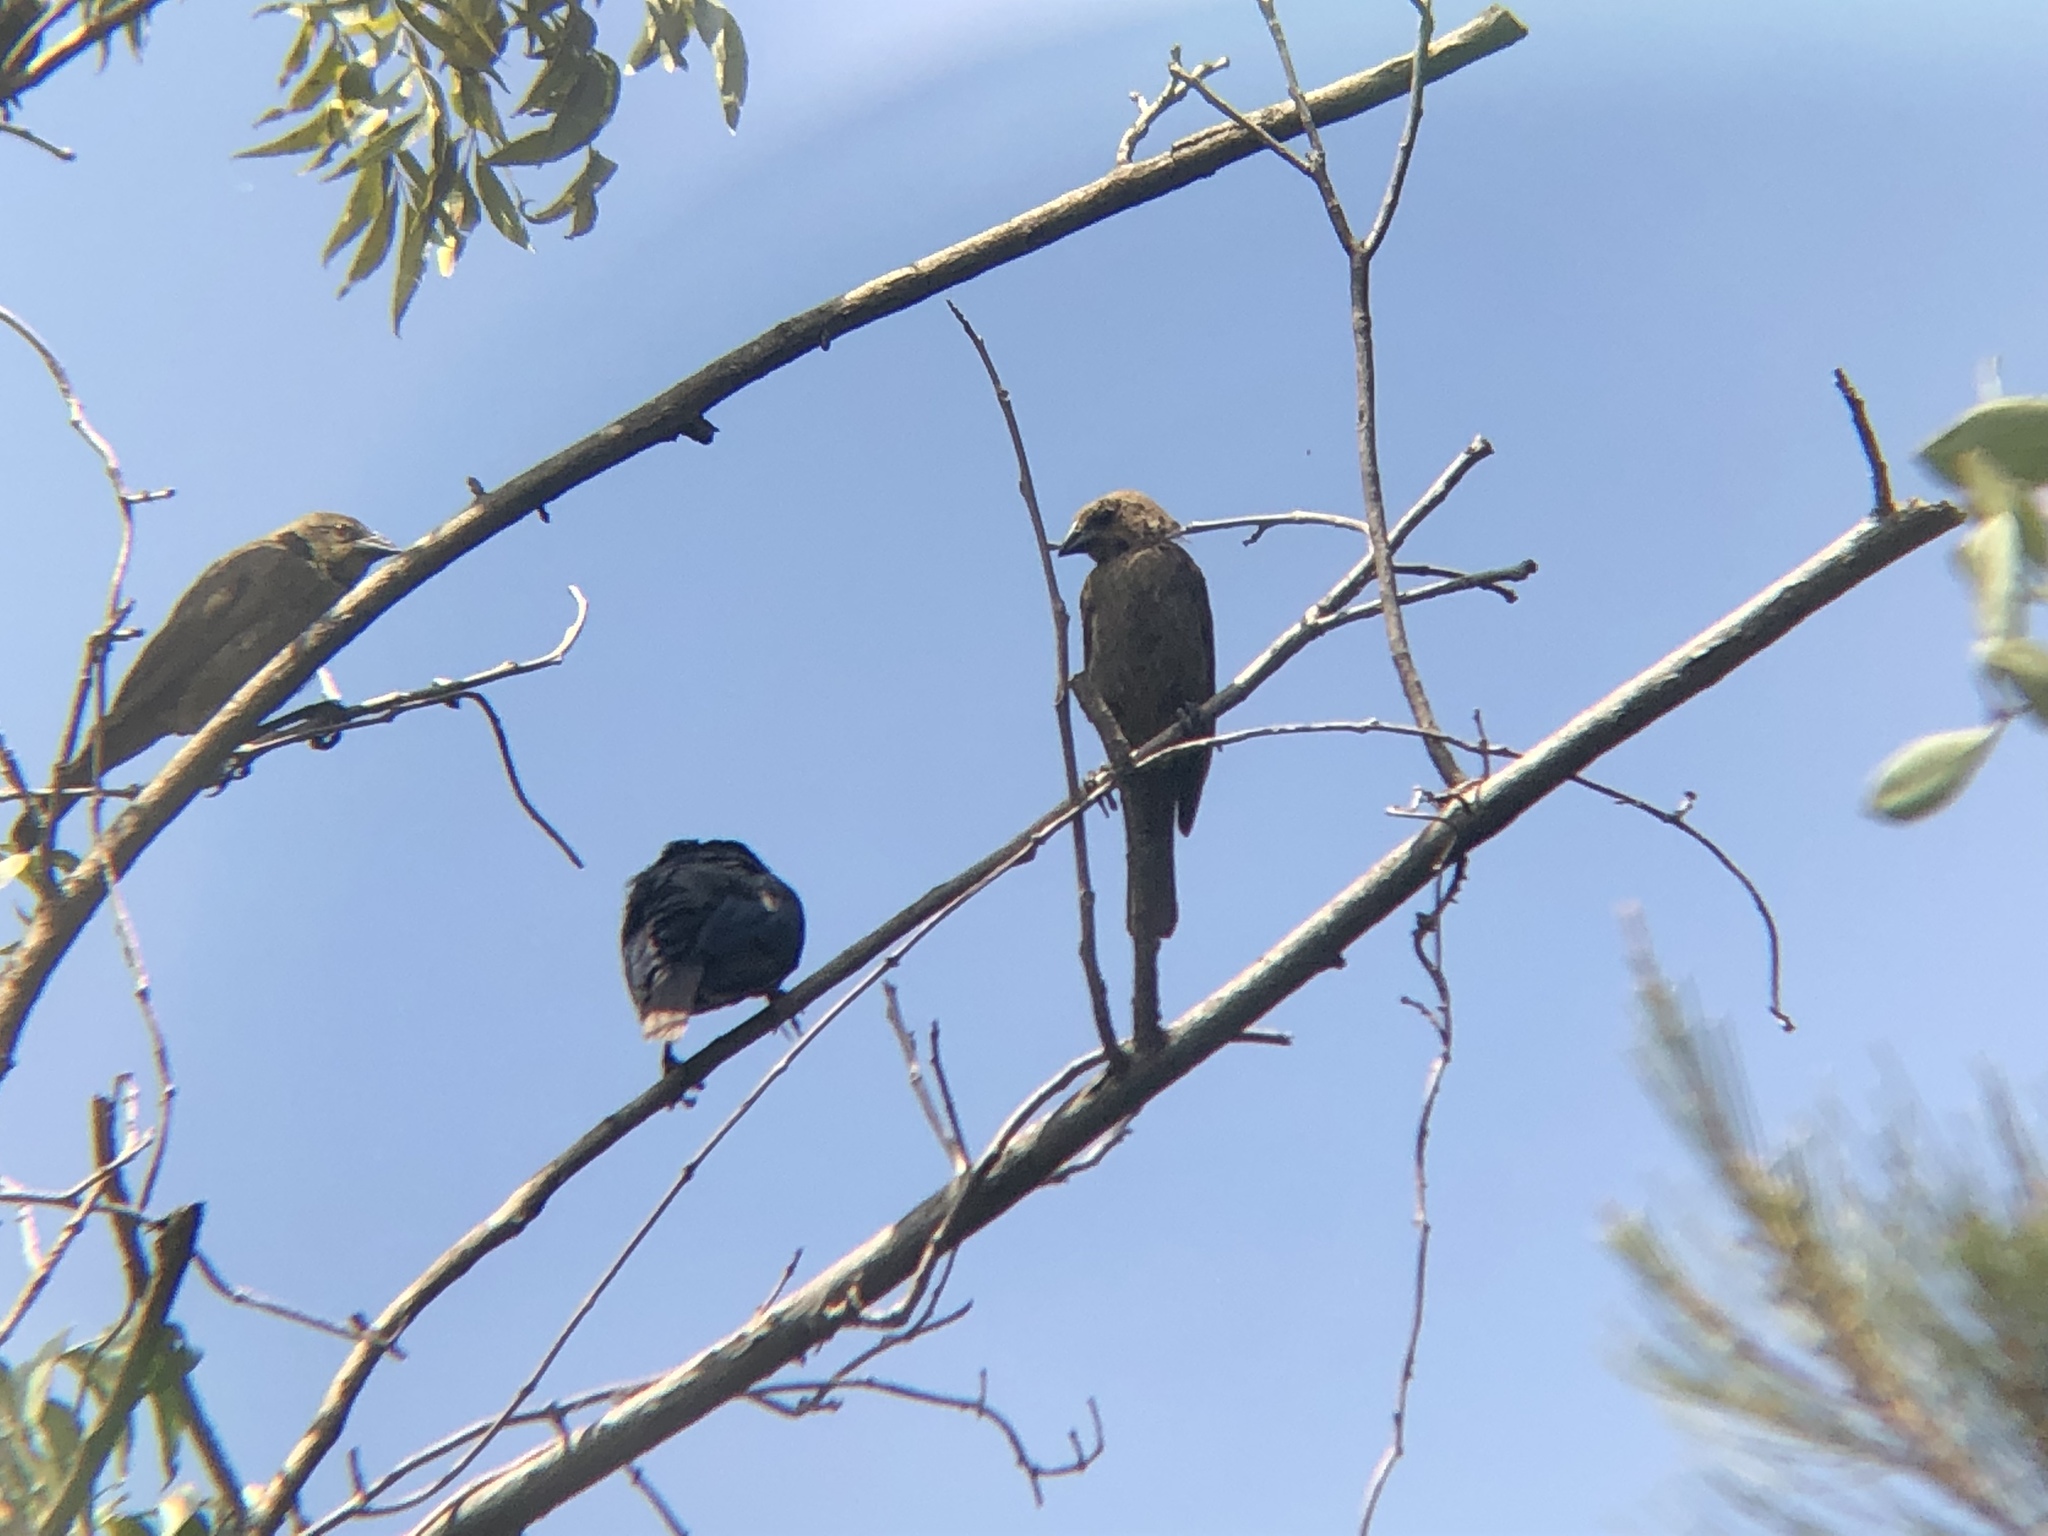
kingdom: Animalia
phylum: Chordata
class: Aves
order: Passeriformes
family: Icteridae
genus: Molothrus
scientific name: Molothrus aeneus
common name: Bronzed cowbird
